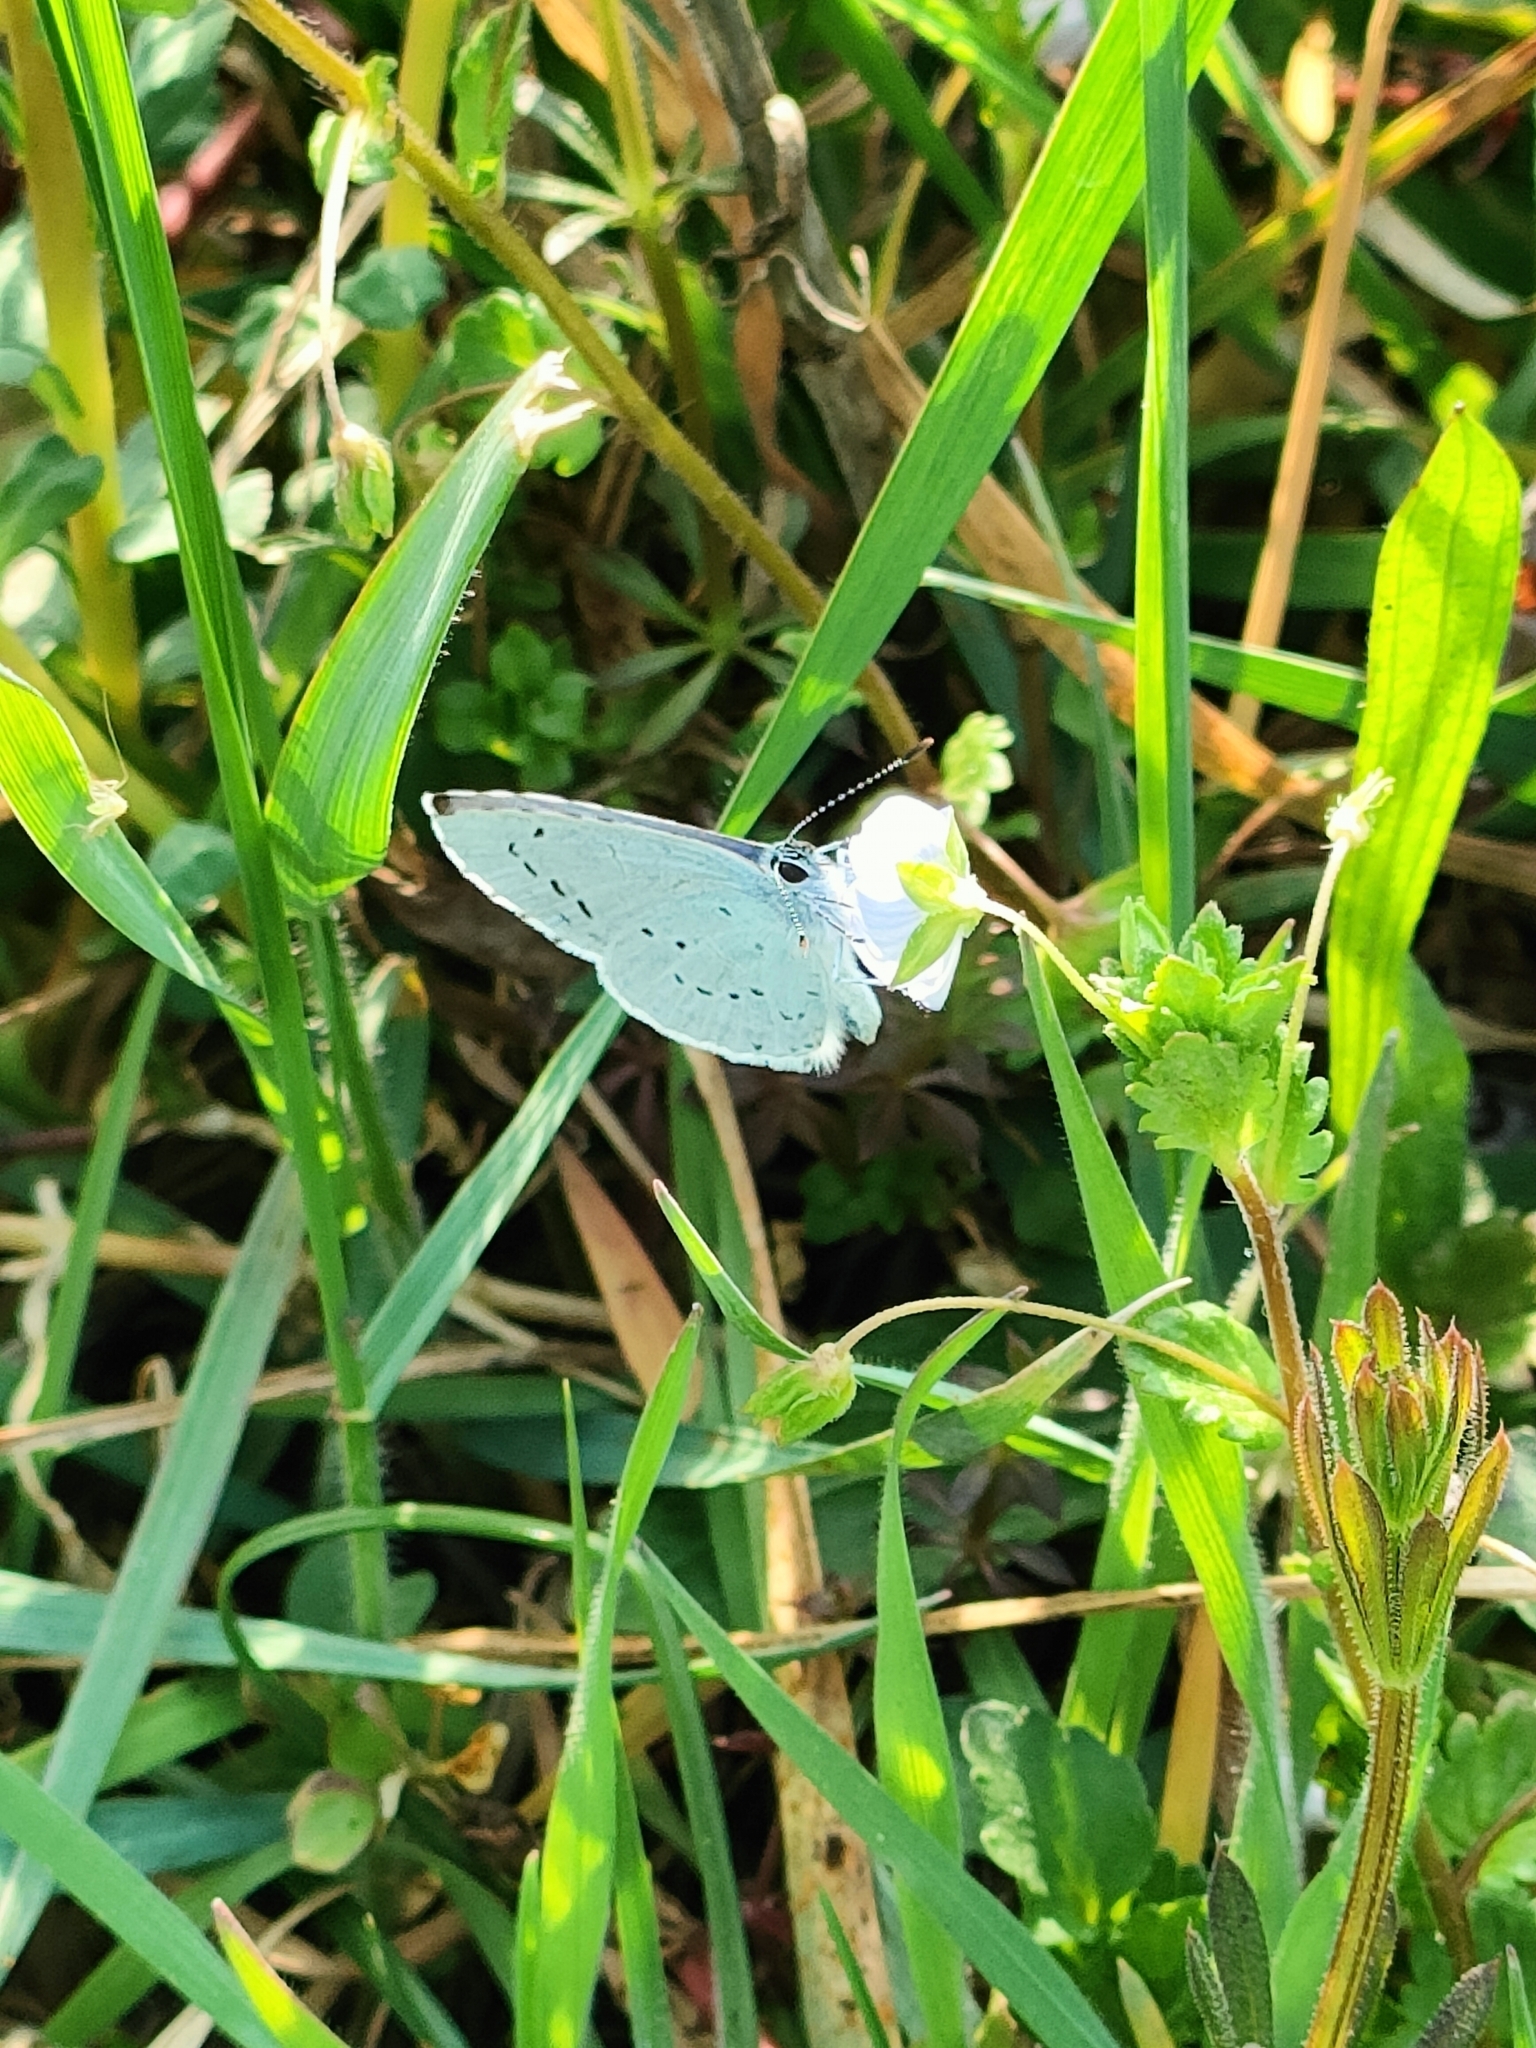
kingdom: Animalia
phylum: Arthropoda
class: Insecta
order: Lepidoptera
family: Lycaenidae
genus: Celastrina
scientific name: Celastrina argiolus
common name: Holly blue
